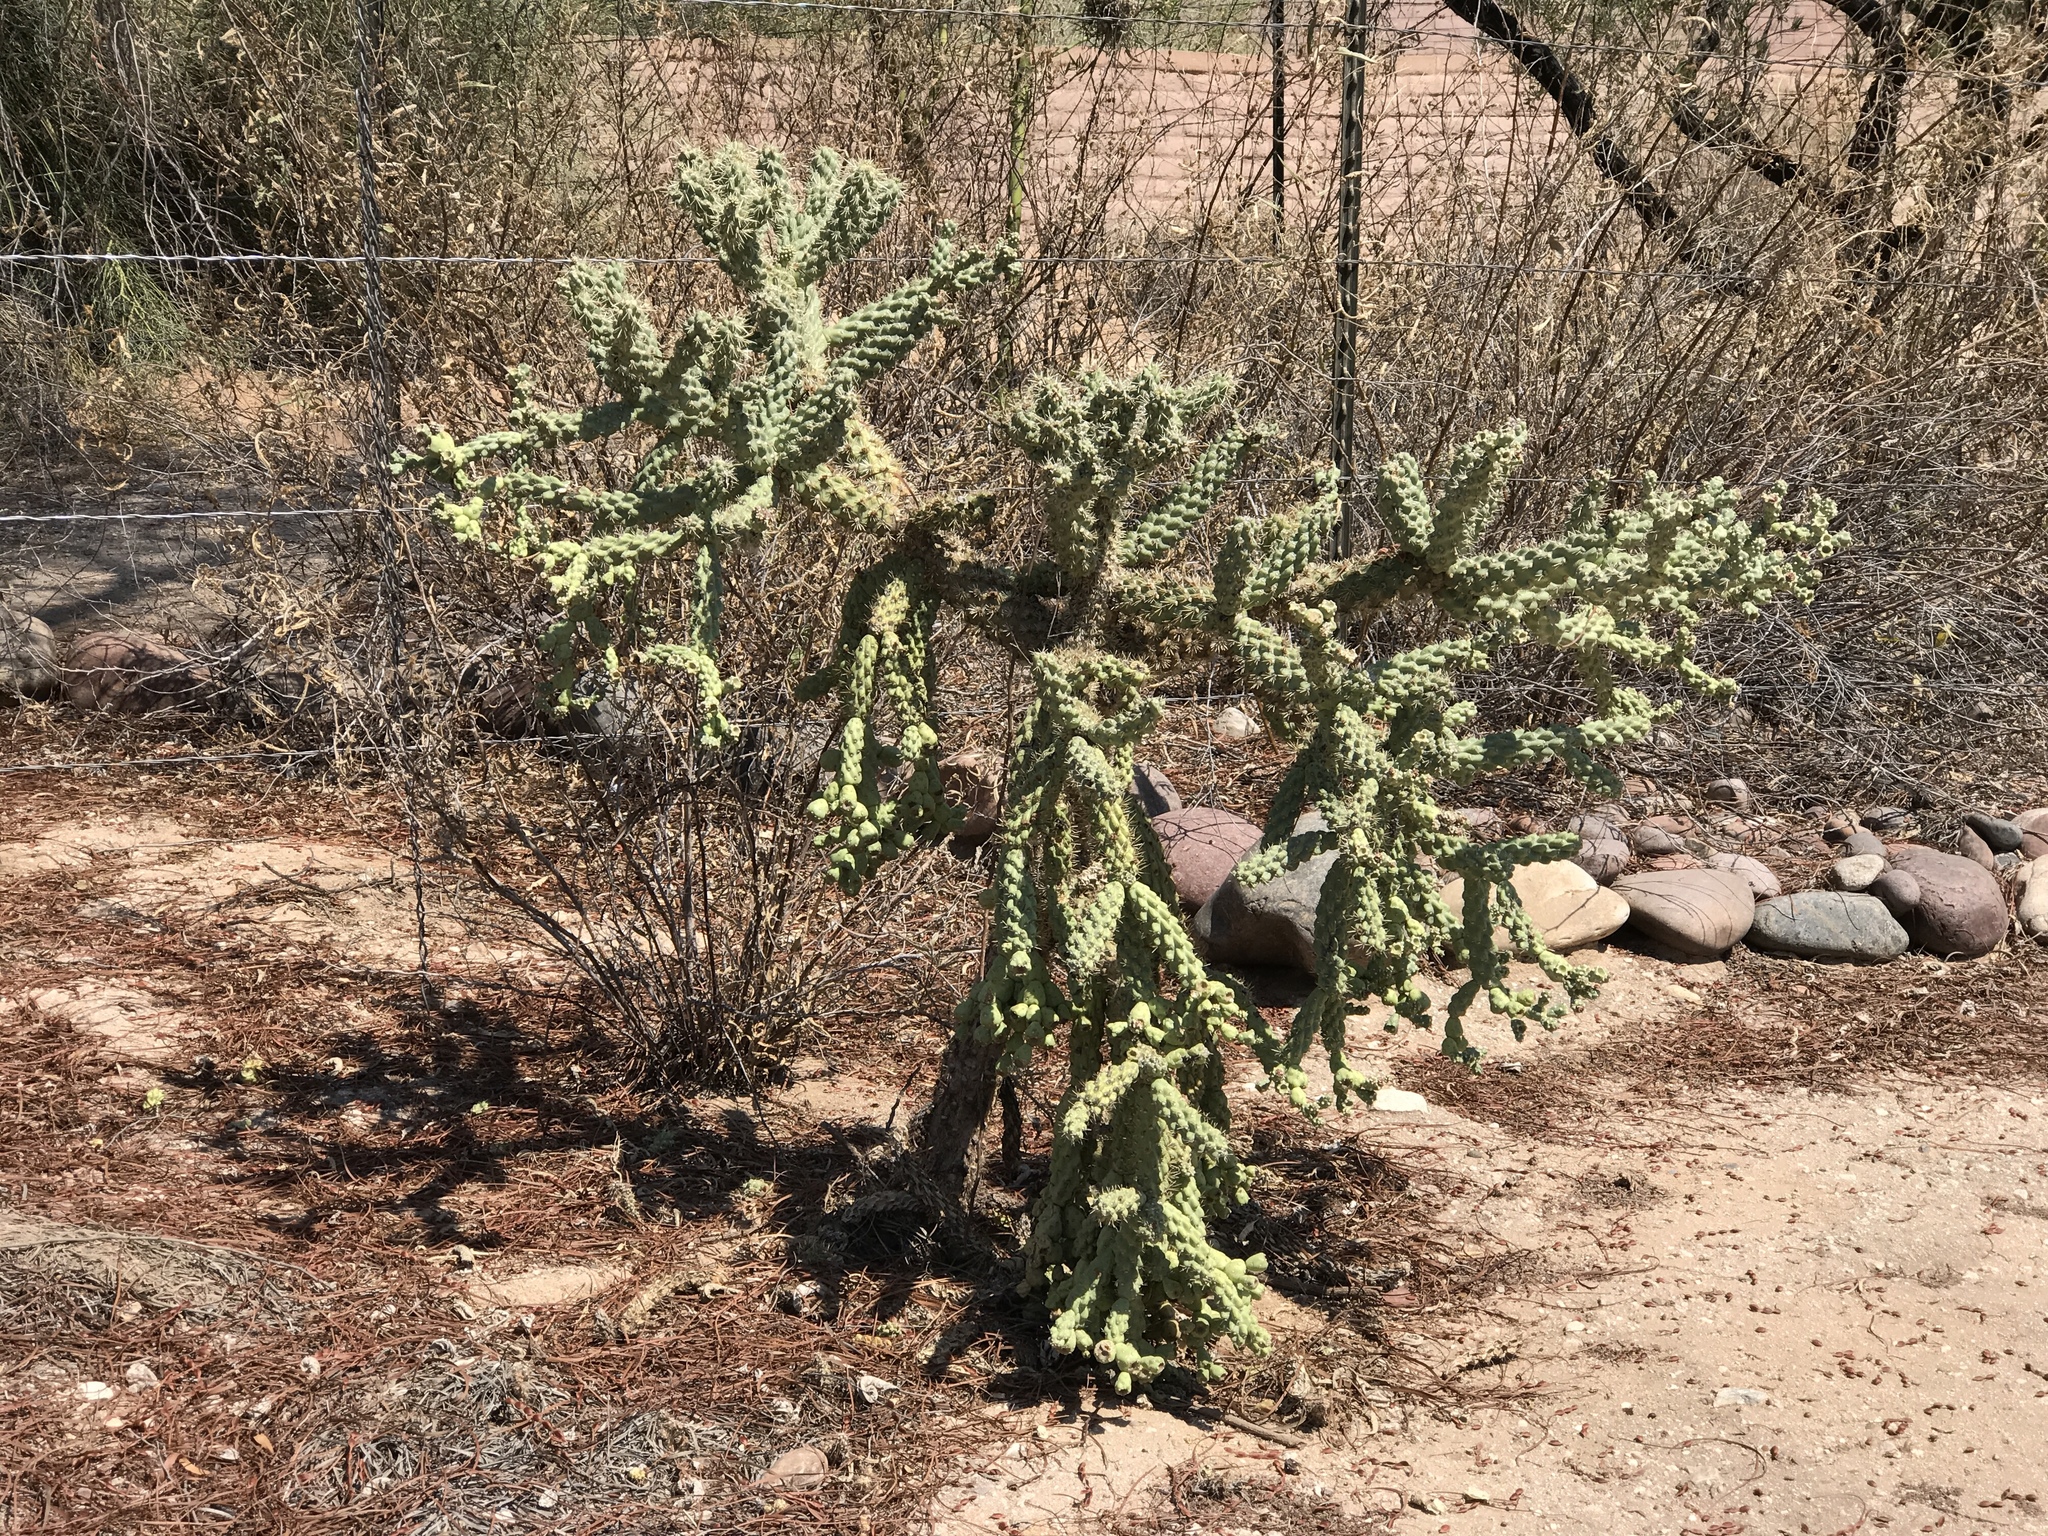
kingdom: Plantae
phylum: Tracheophyta
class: Magnoliopsida
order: Caryophyllales
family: Cactaceae
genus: Cylindropuntia
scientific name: Cylindropuntia fulgida
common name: Jumping cholla
